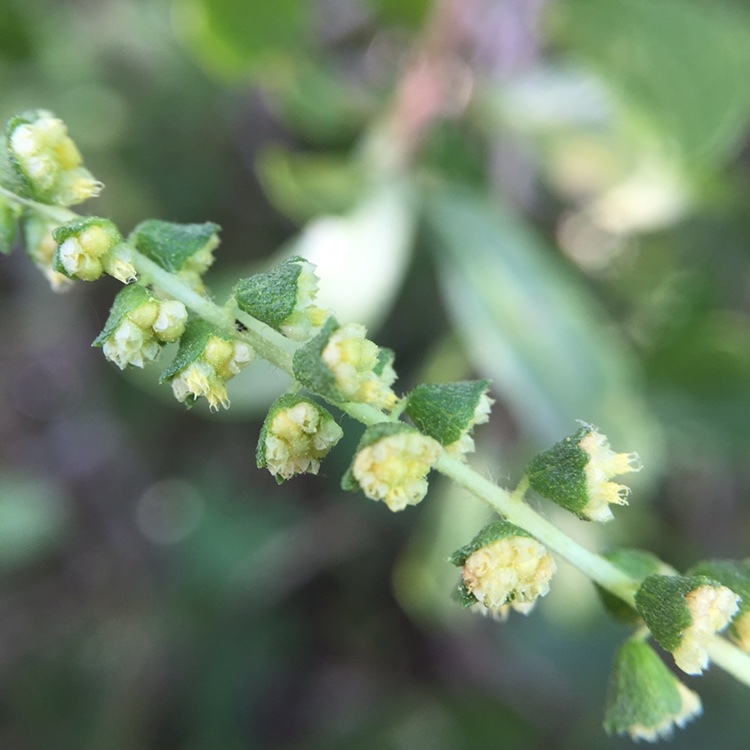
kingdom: Plantae
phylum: Tracheophyta
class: Magnoliopsida
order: Asterales
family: Asteraceae
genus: Ambrosia
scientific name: Ambrosia tenuifolia
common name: Lacy ambrosia
